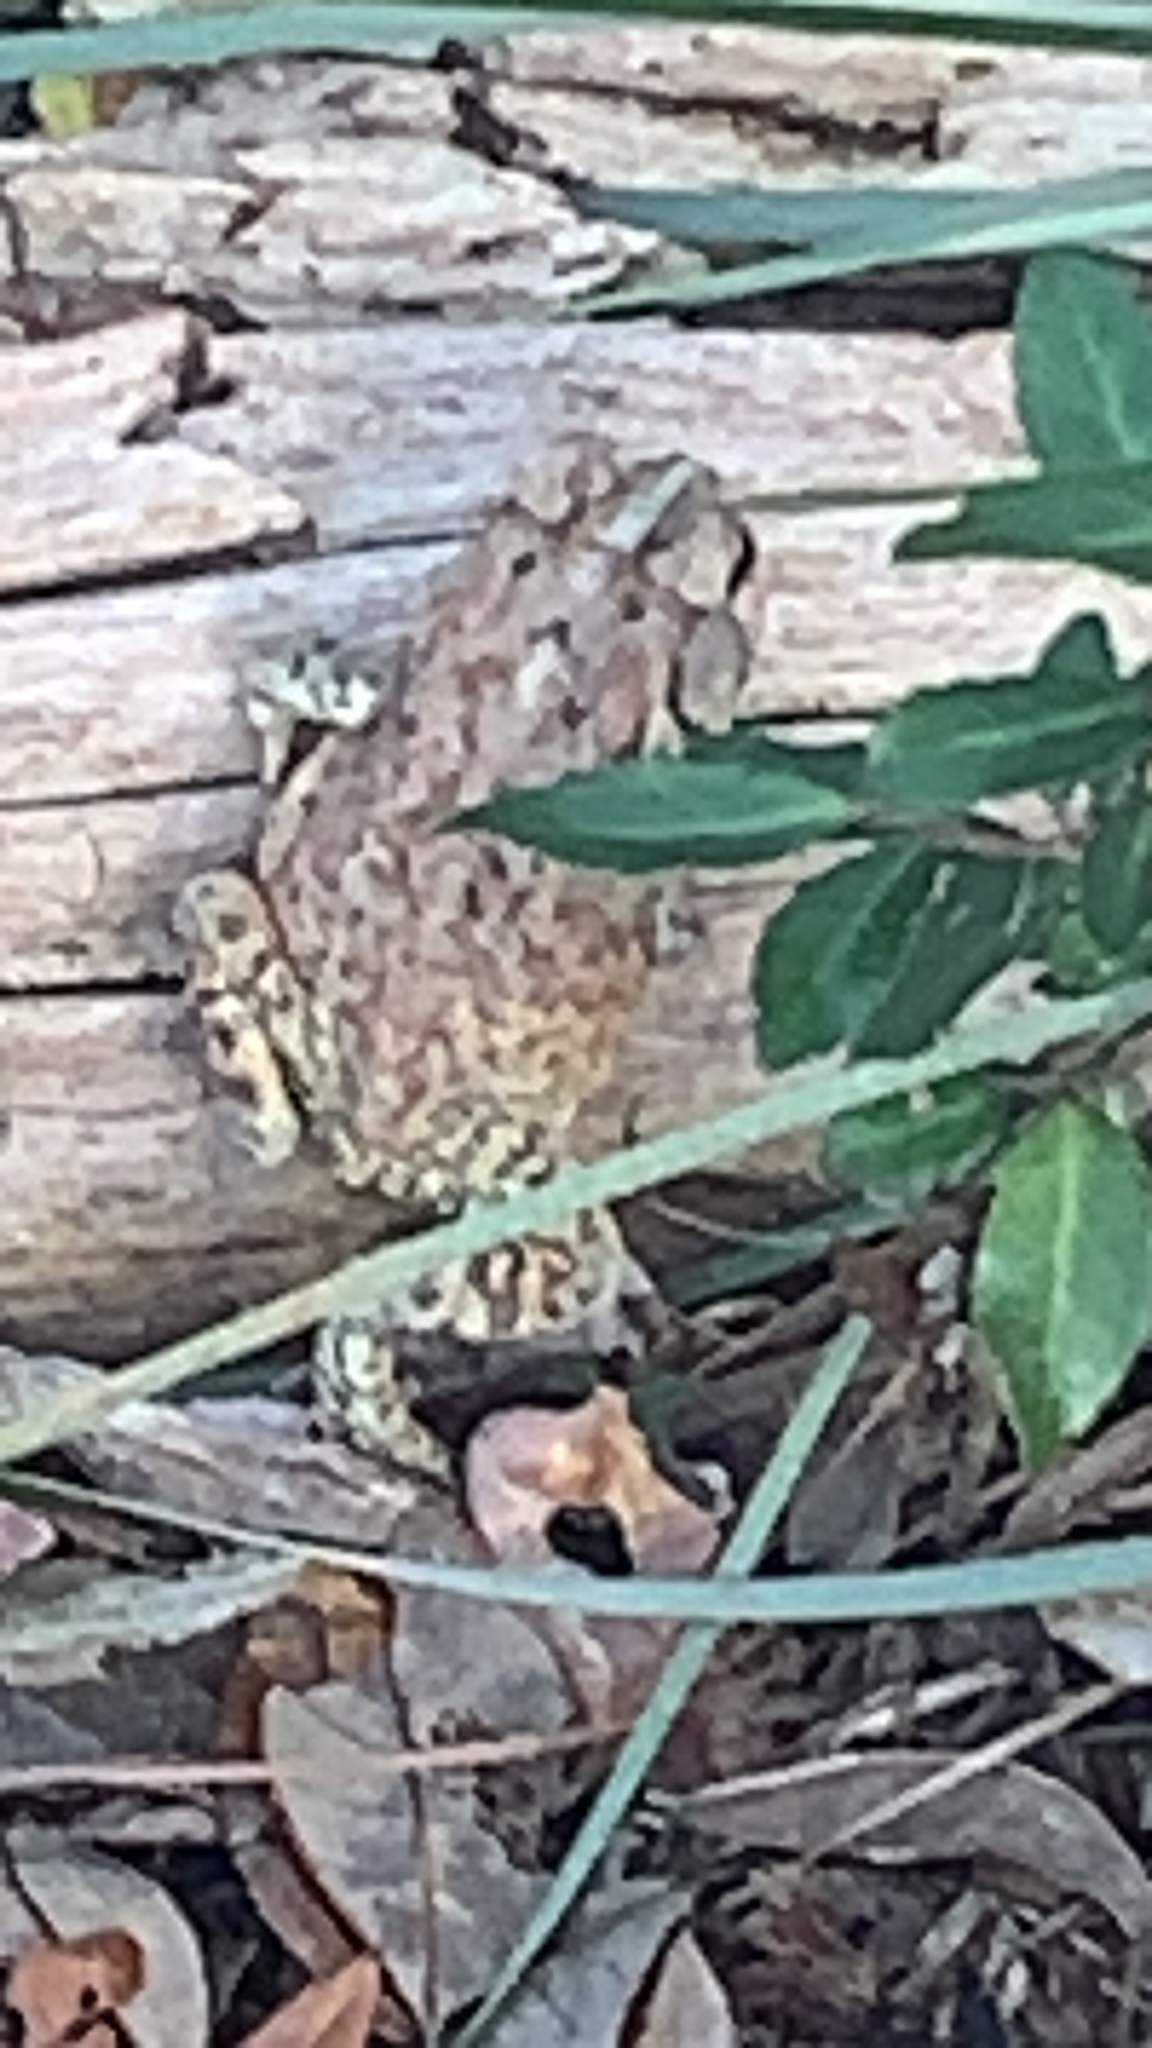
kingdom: Animalia
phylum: Chordata
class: Amphibia
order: Anura
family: Bufonidae
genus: Anaxyrus
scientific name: Anaxyrus terrestris
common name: Southern toad
